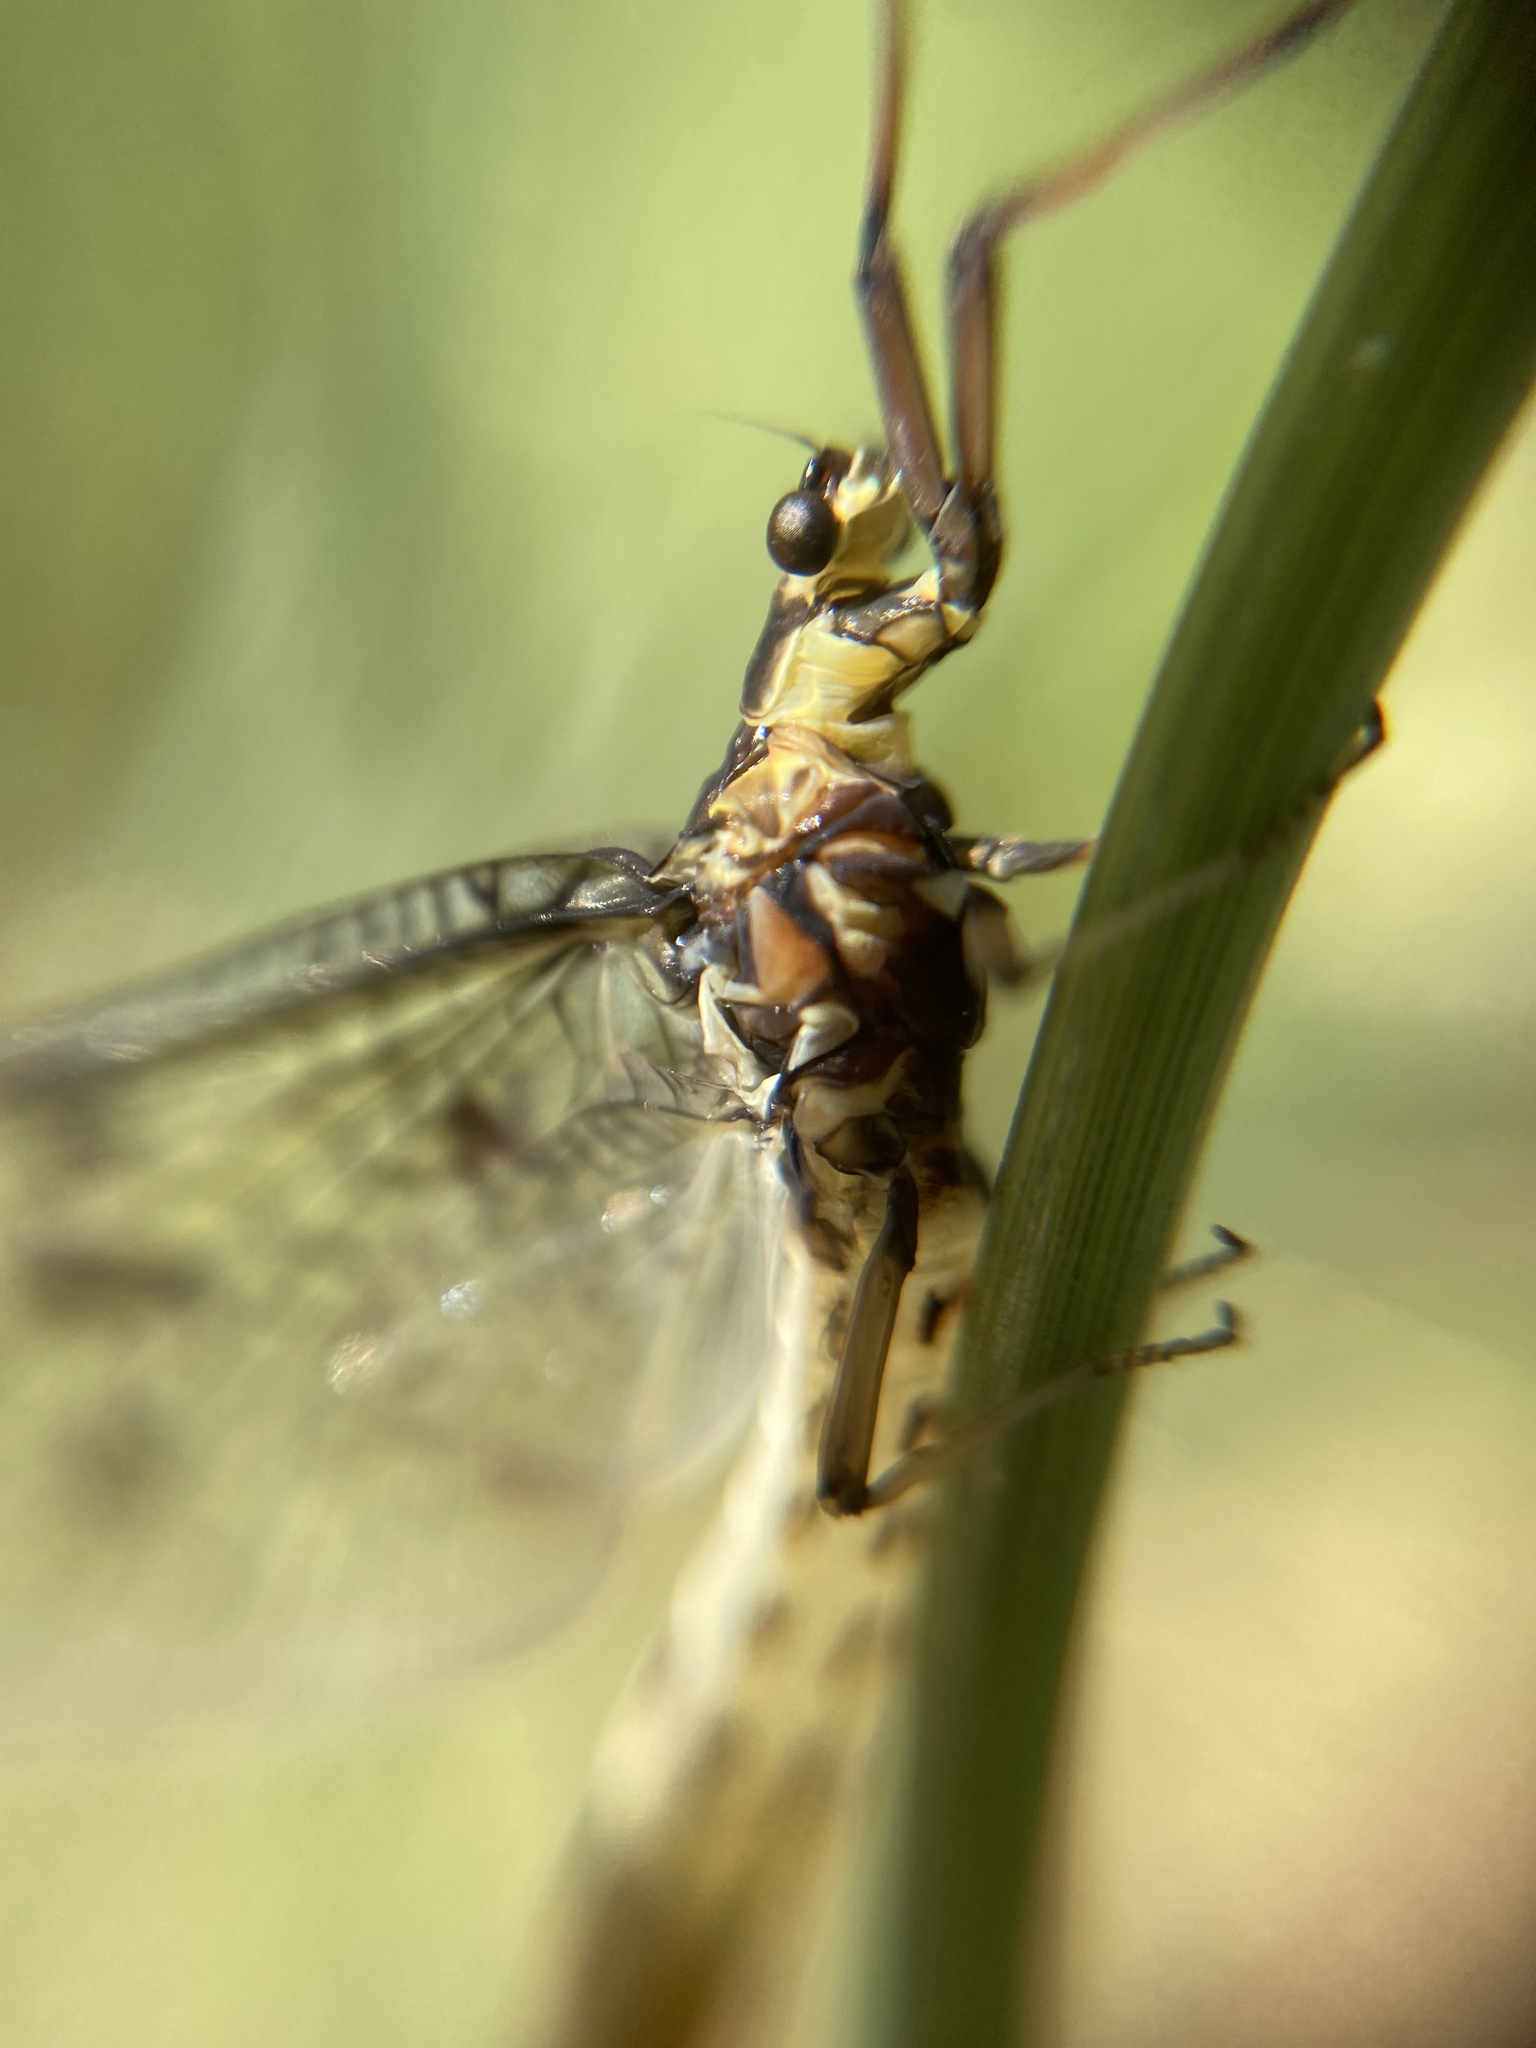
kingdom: Animalia
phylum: Arthropoda
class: Insecta
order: Ephemeroptera
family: Ephemeridae
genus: Ephemera
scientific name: Ephemera danica
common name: Green dun
